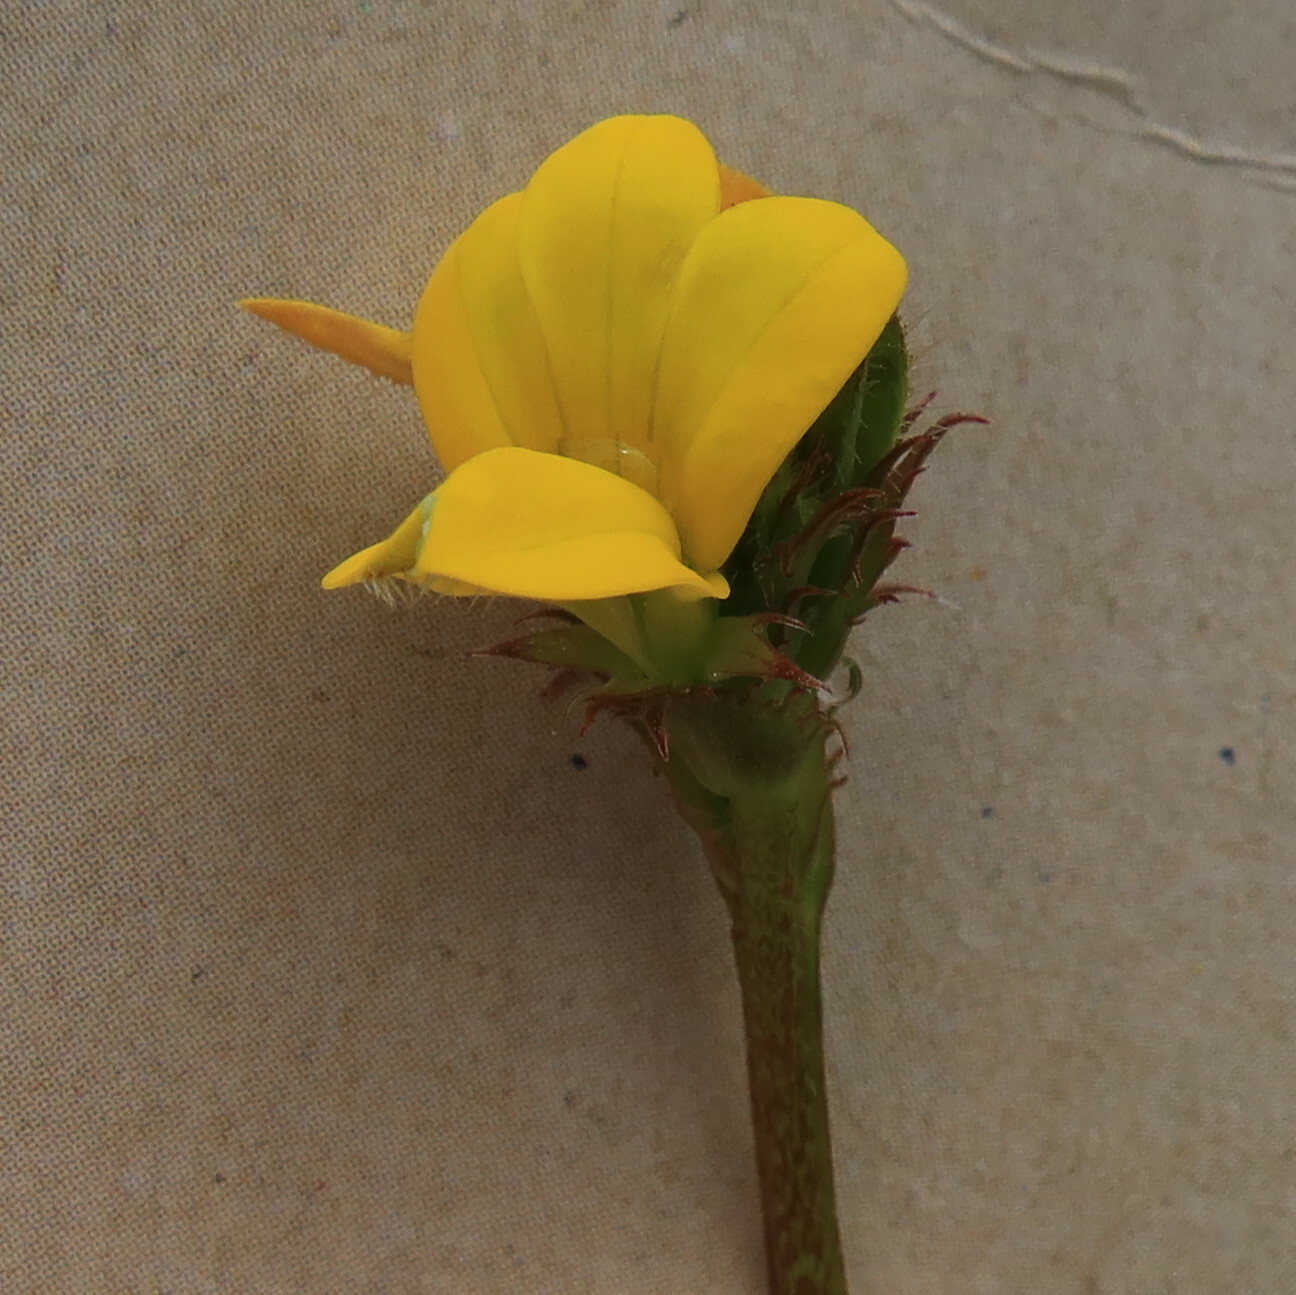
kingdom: Plantae
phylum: Tracheophyta
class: Magnoliopsida
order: Asterales
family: Campanulaceae
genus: Monopsis
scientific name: Monopsis lutea
